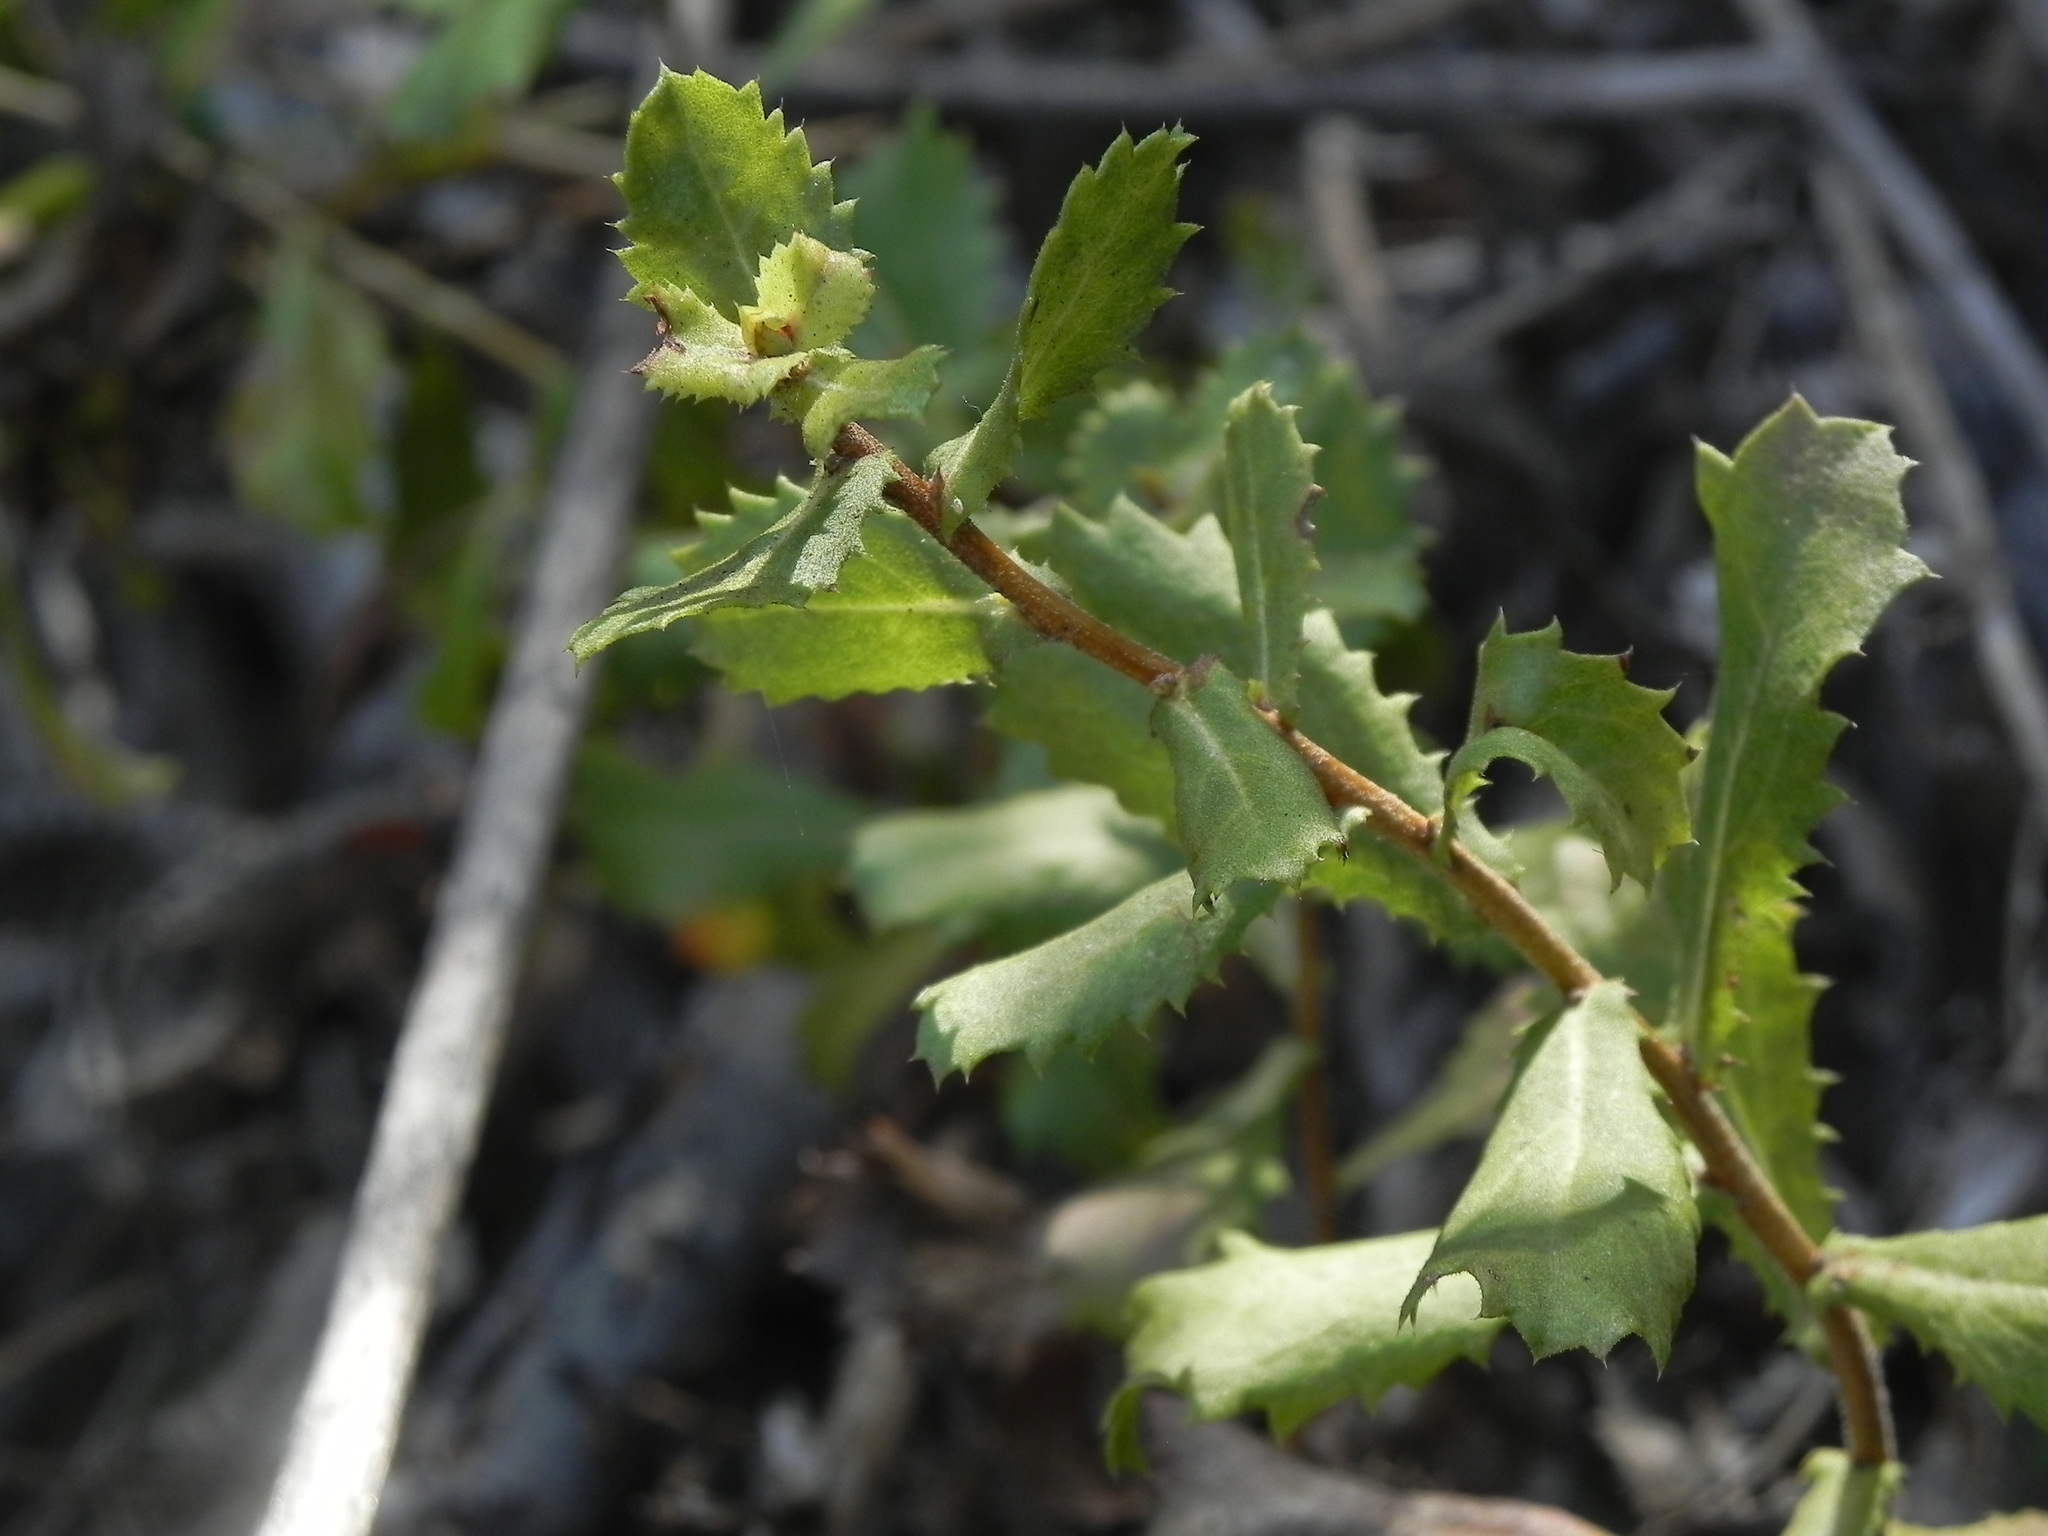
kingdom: Plantae
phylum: Tracheophyta
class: Magnoliopsida
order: Asterales
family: Asteraceae
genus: Hazardia
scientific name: Hazardia squarrosa
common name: Saw-tooth goldenbush
